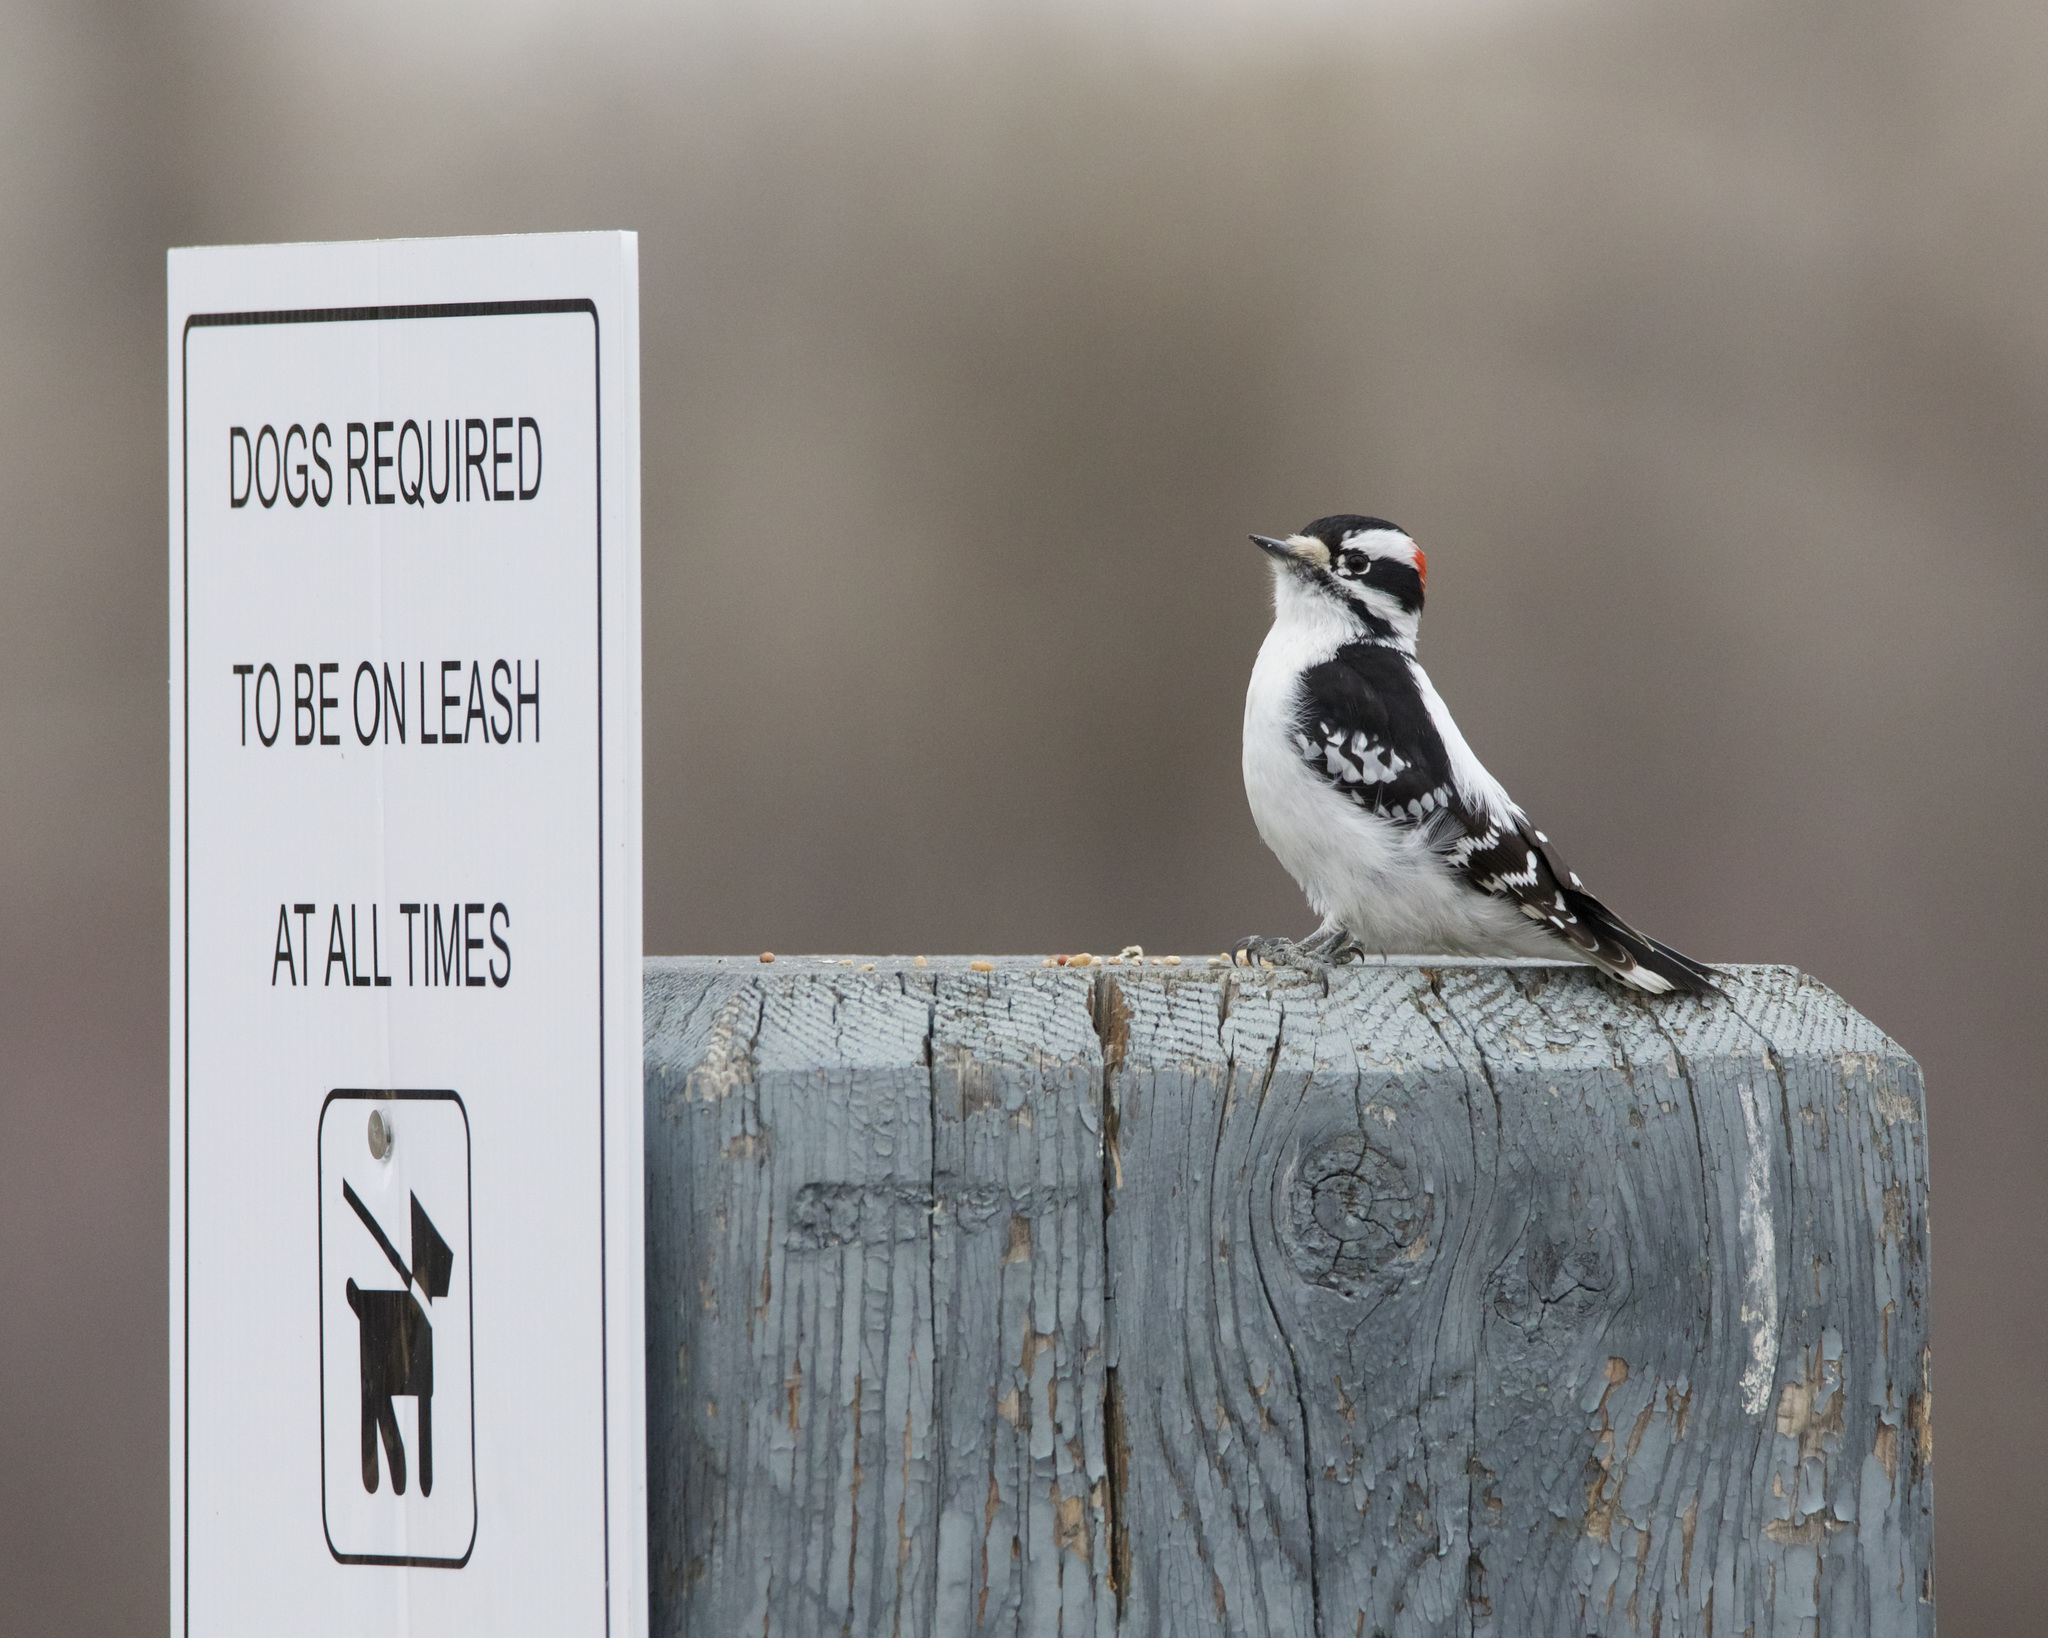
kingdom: Animalia
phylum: Chordata
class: Aves
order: Piciformes
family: Picidae
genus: Dryobates
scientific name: Dryobates pubescens
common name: Downy woodpecker
